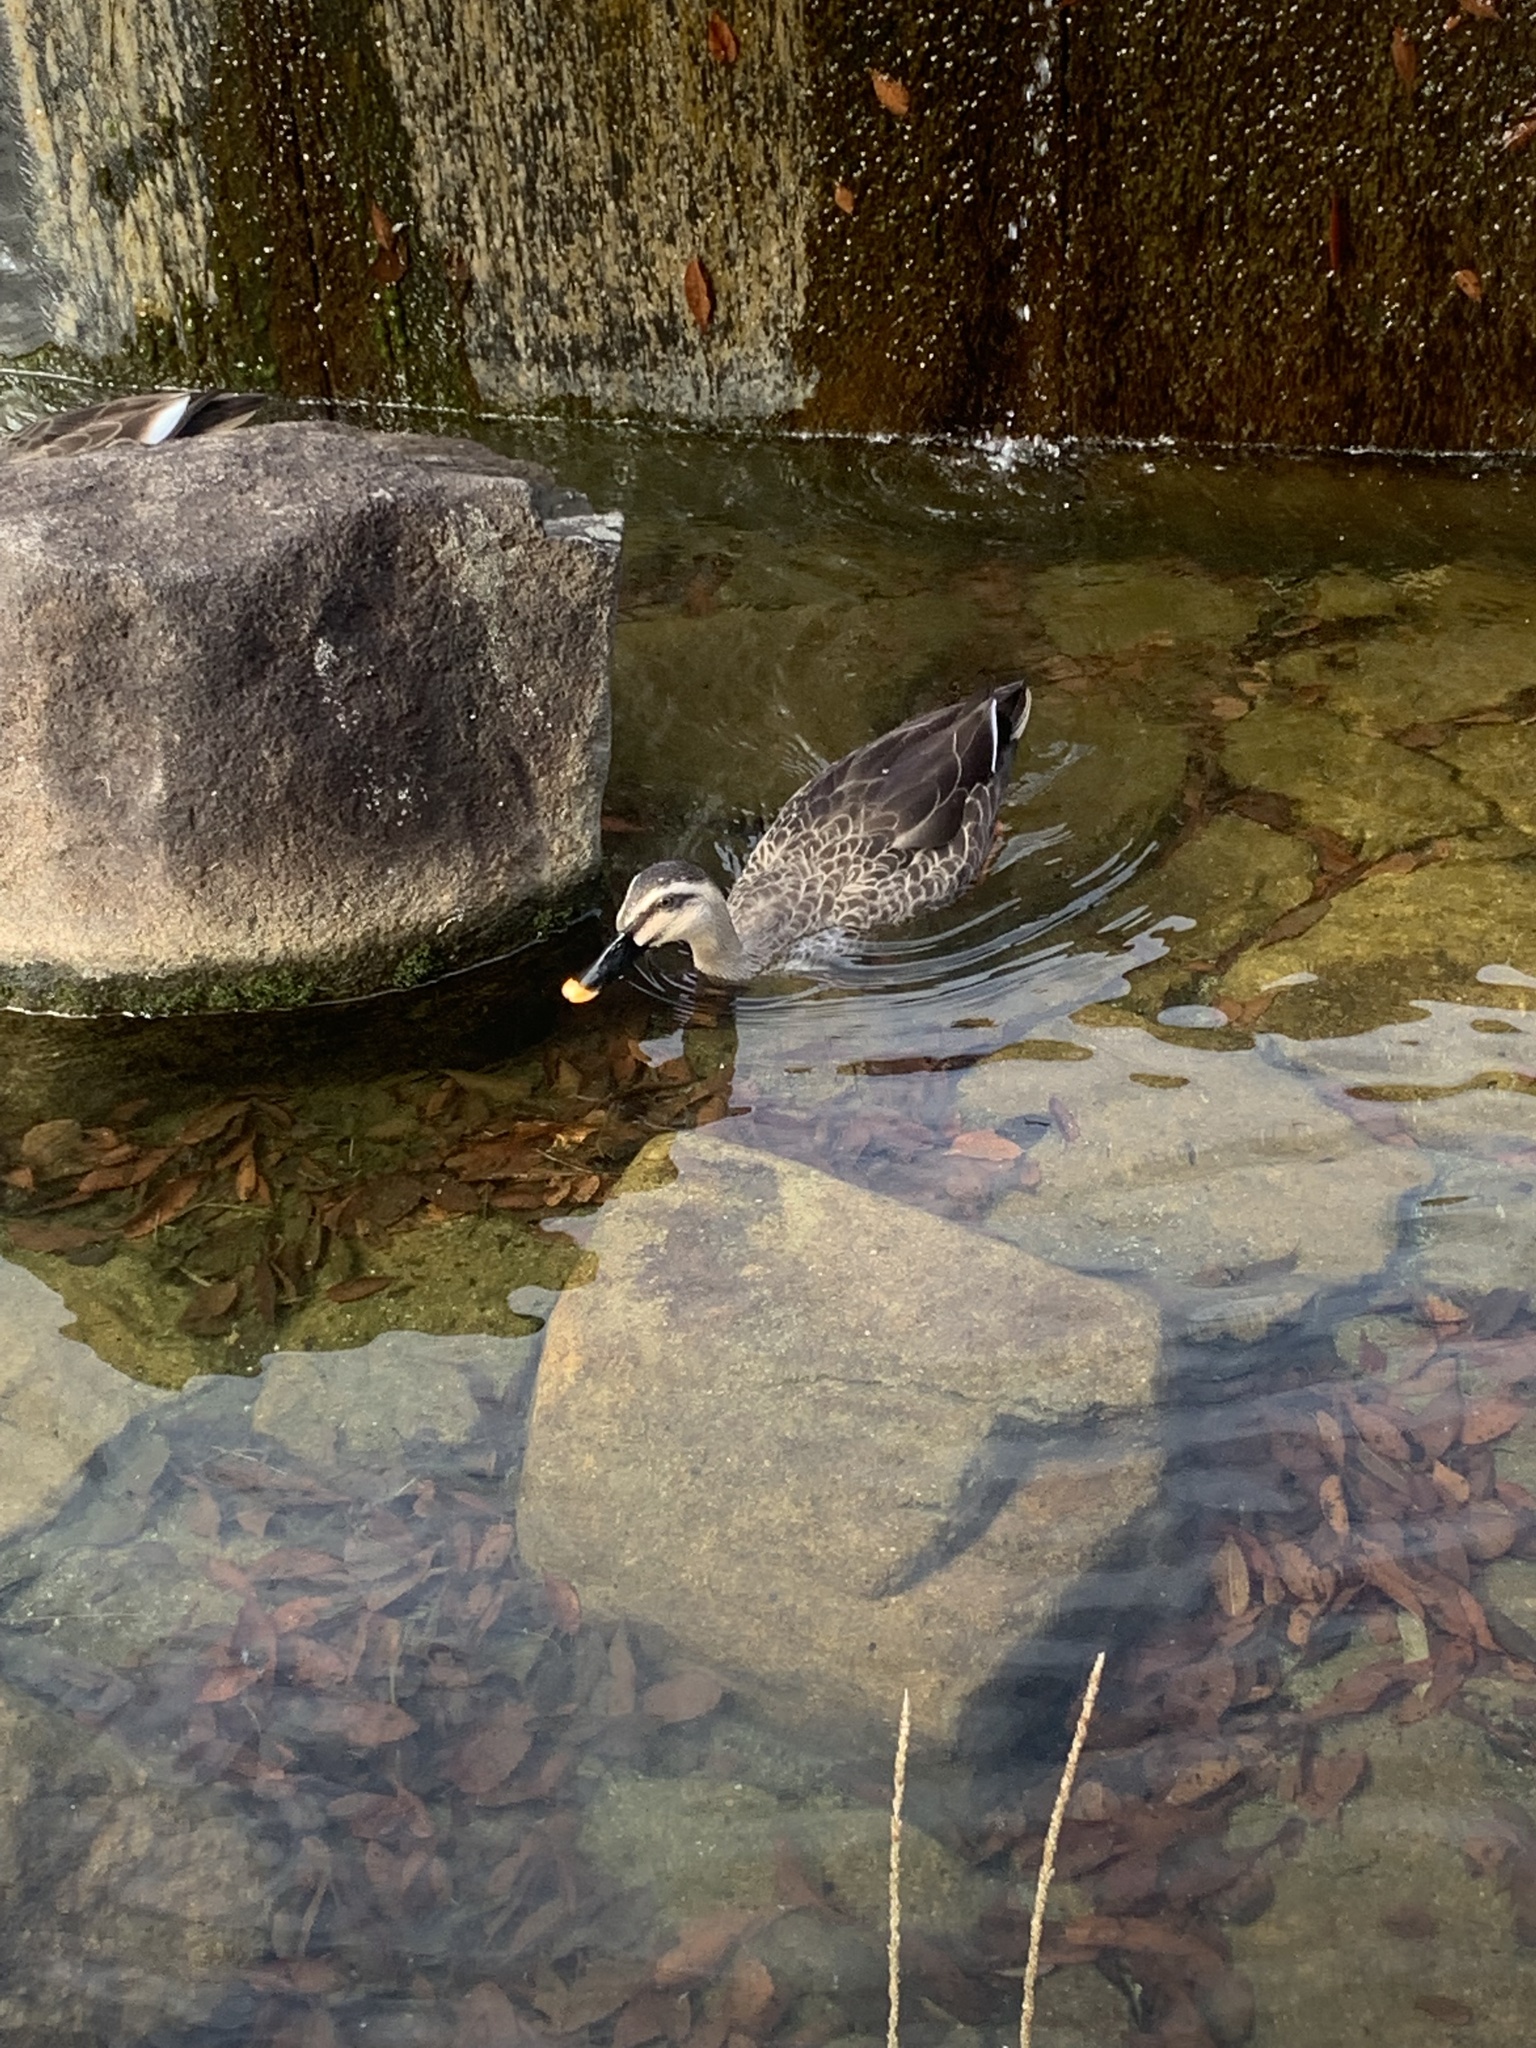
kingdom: Animalia
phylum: Chordata
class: Aves
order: Anseriformes
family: Anatidae
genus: Anas
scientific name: Anas zonorhyncha
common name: Eastern spot-billed duck
